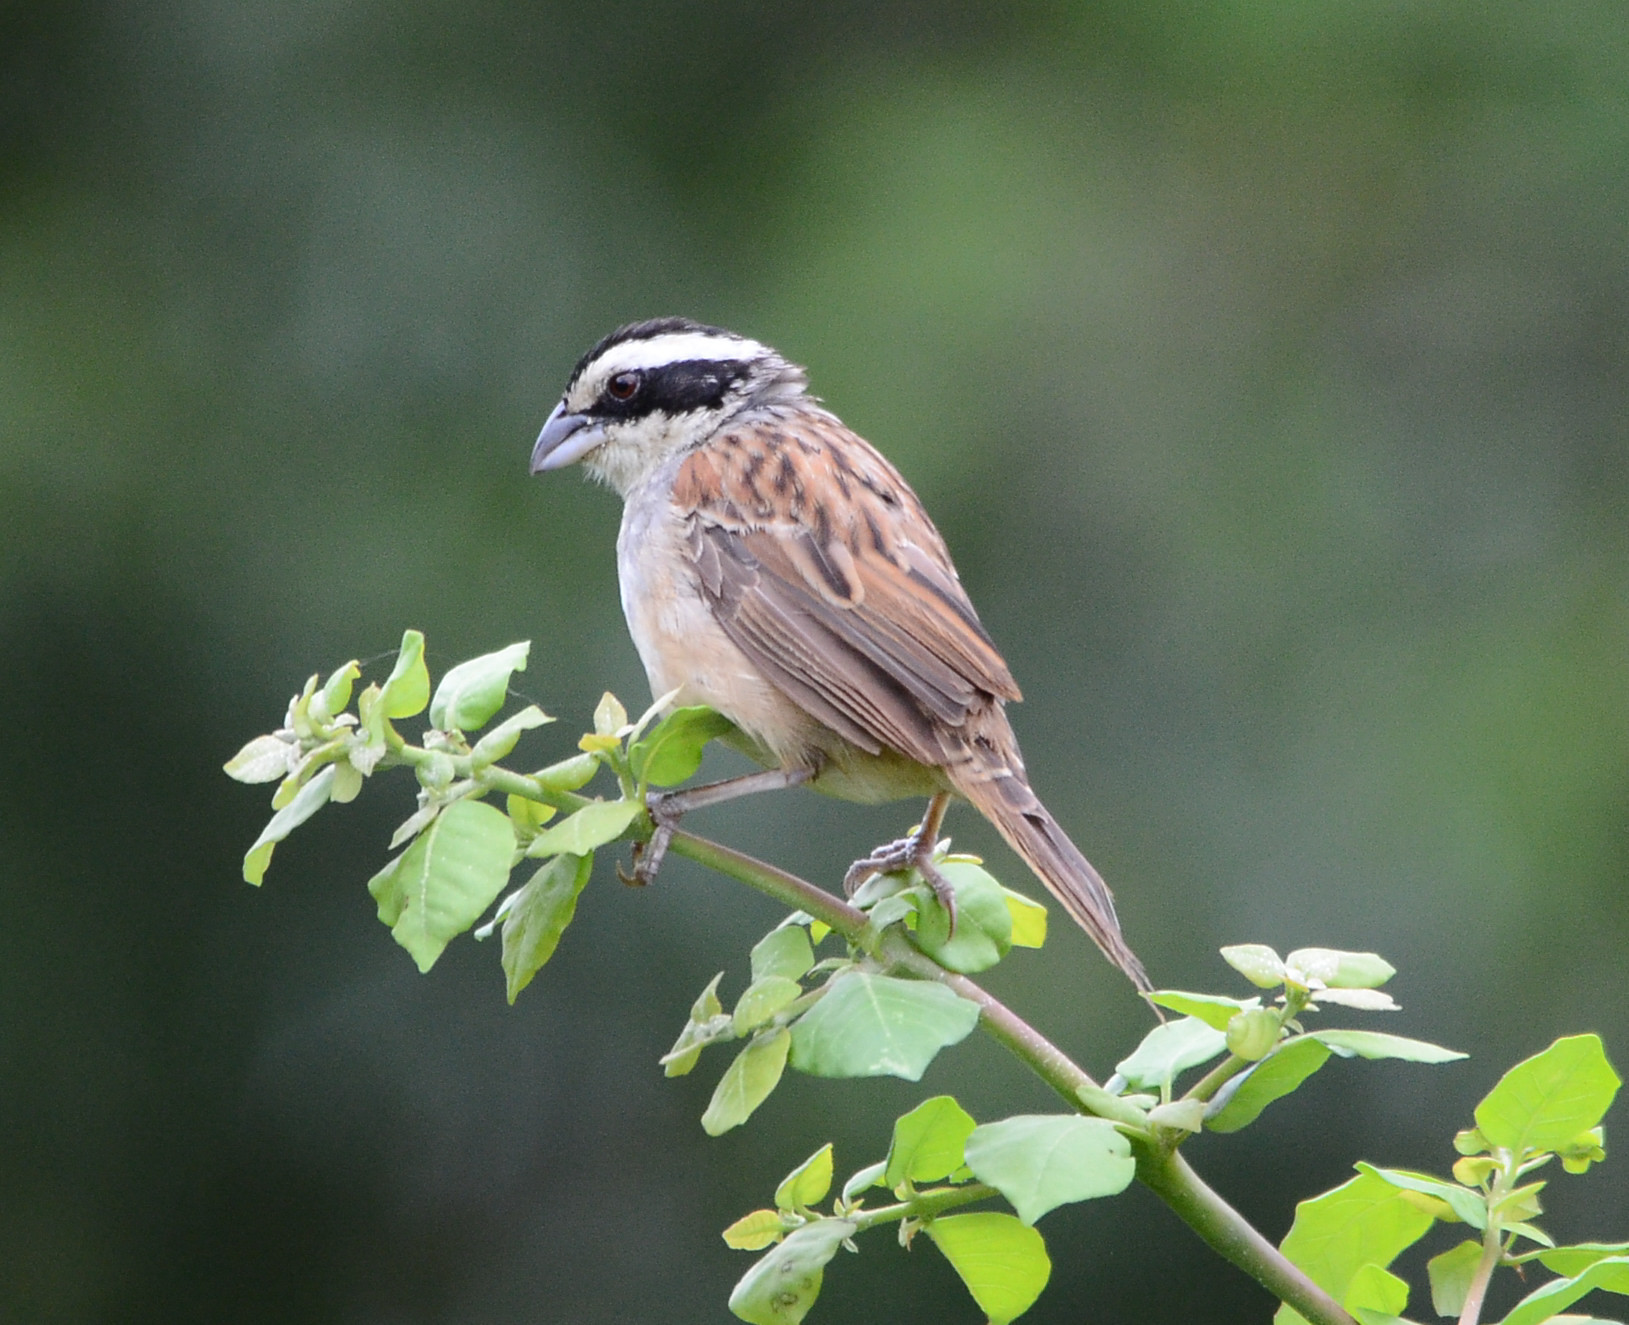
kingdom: Animalia
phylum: Chordata
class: Aves
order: Passeriformes
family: Passerellidae
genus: Peucaea
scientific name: Peucaea ruficauda
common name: Stripe-headed sparrow
